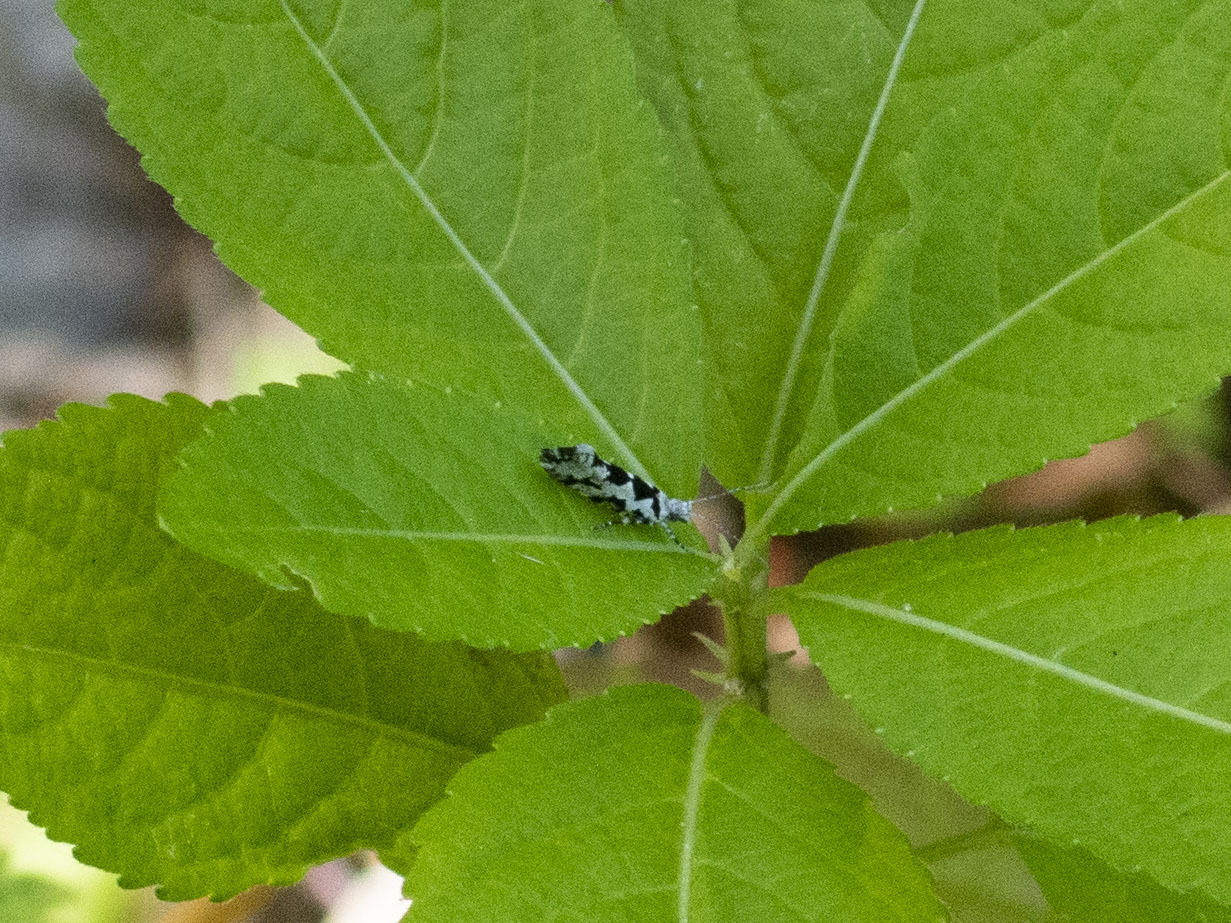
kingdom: Animalia
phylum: Arthropoda
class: Insecta
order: Lepidoptera
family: Plutellidae
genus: Ypsolophus
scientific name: Ypsolophus sequella
